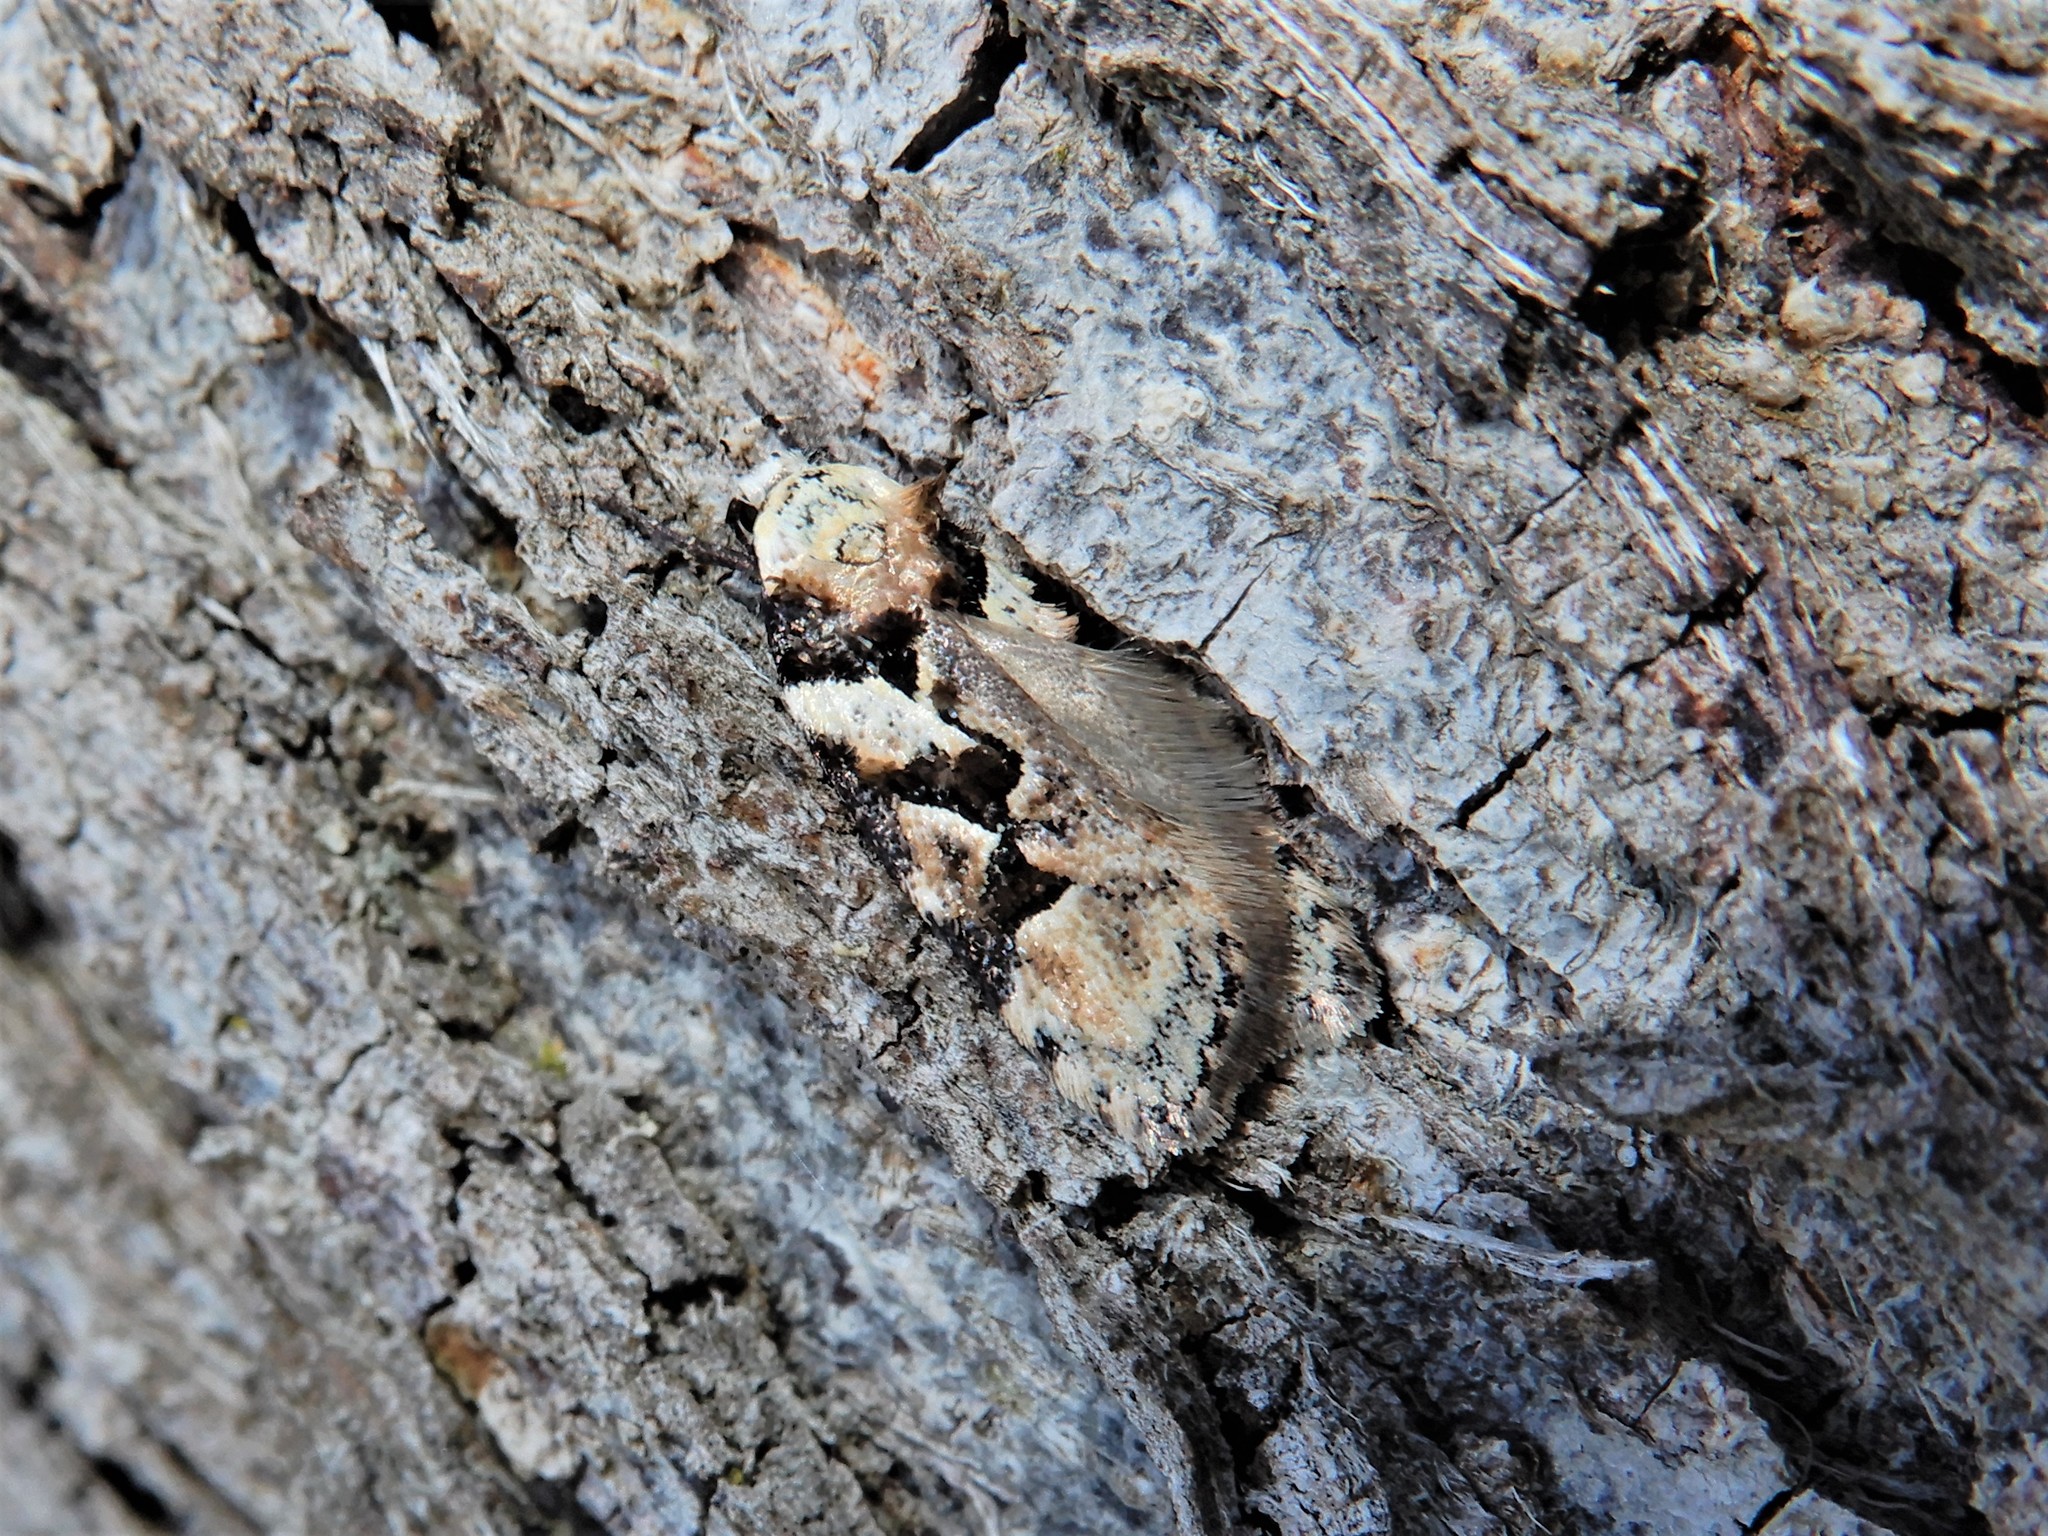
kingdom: Animalia
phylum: Arthropoda
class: Insecta
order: Lepidoptera
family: Oecophoridae
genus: Izatha
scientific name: Izatha epiphanes
